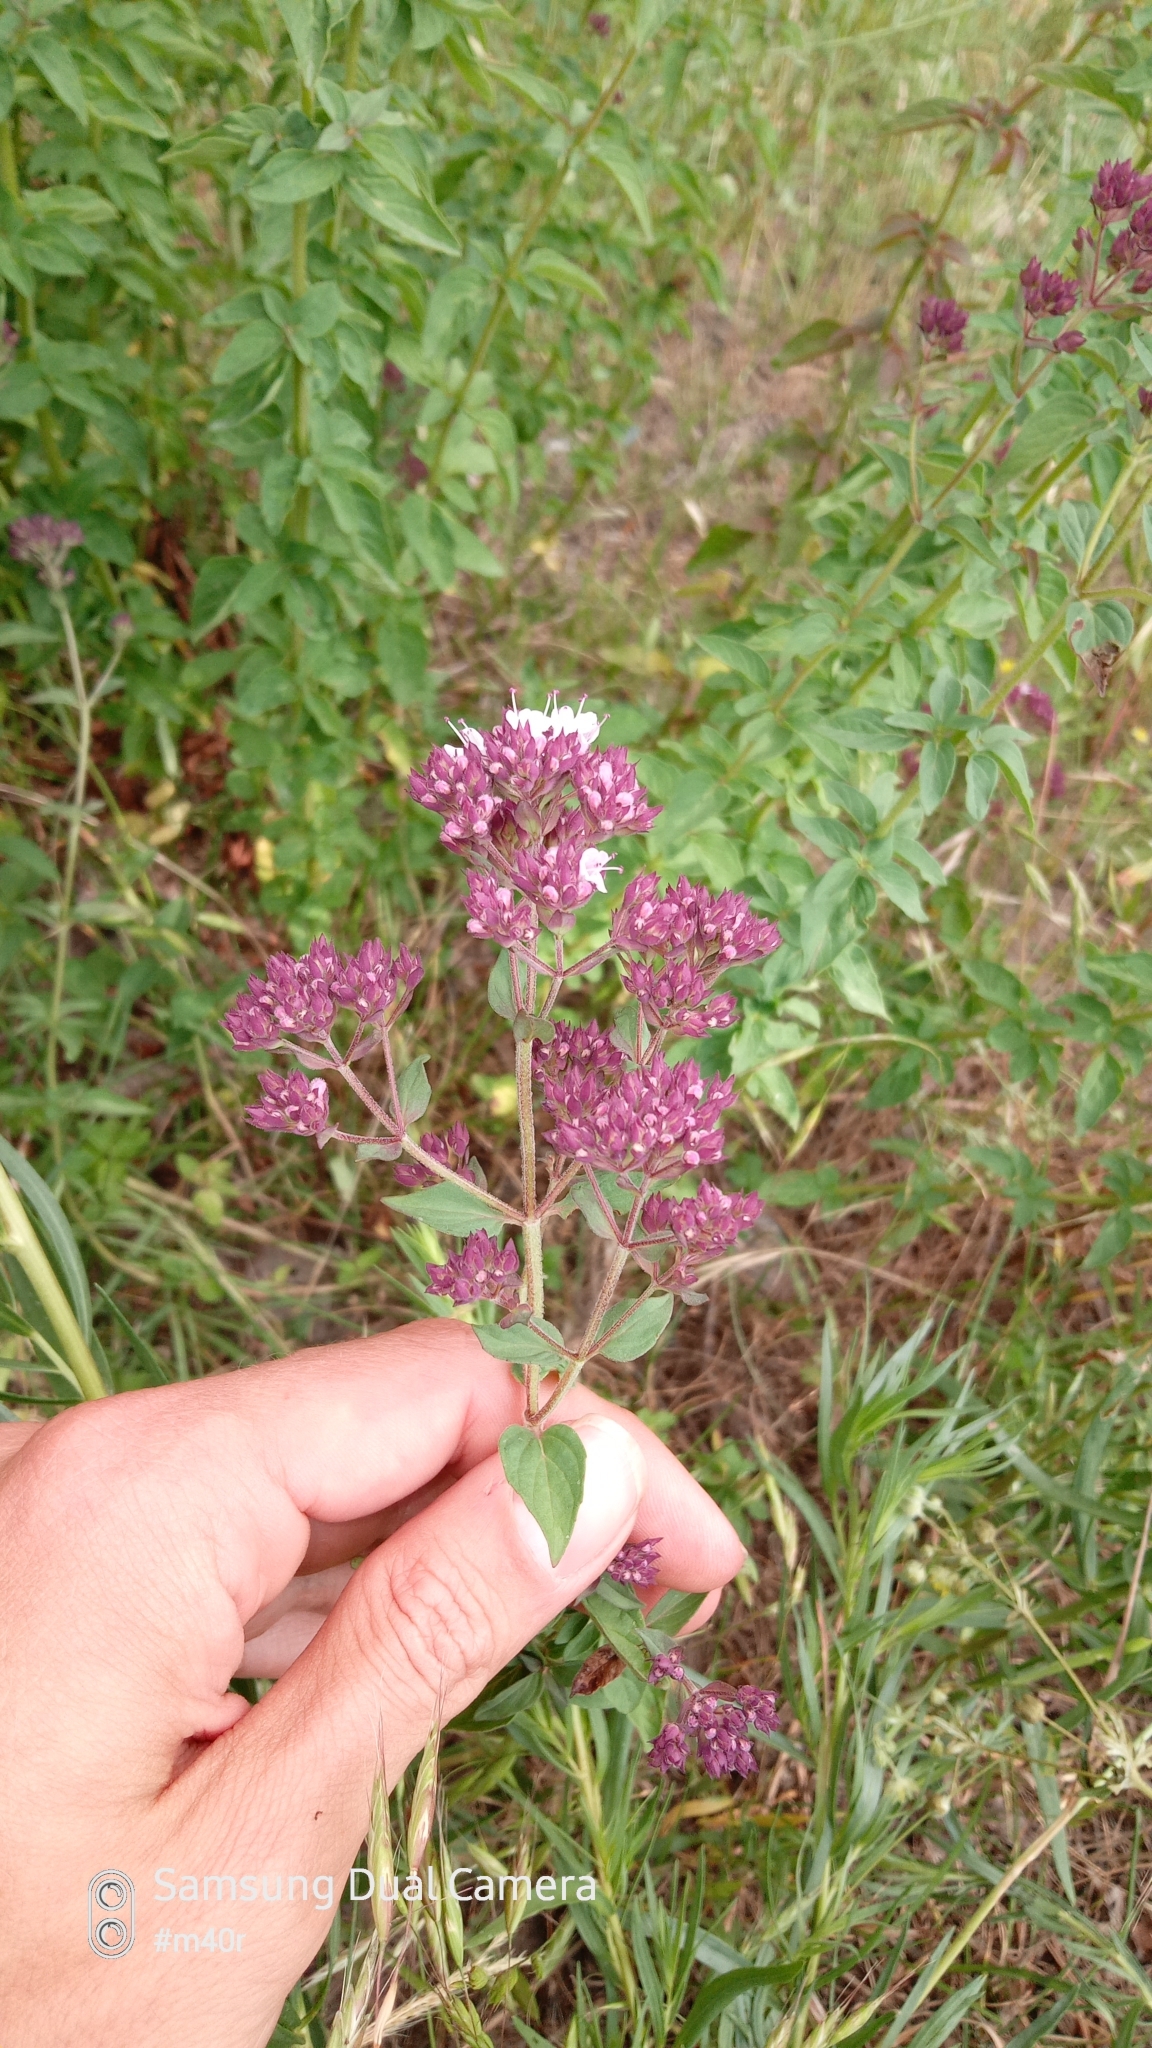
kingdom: Plantae
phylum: Tracheophyta
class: Magnoliopsida
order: Lamiales
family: Lamiaceae
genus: Origanum
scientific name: Origanum vulgare
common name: Wild marjoram
